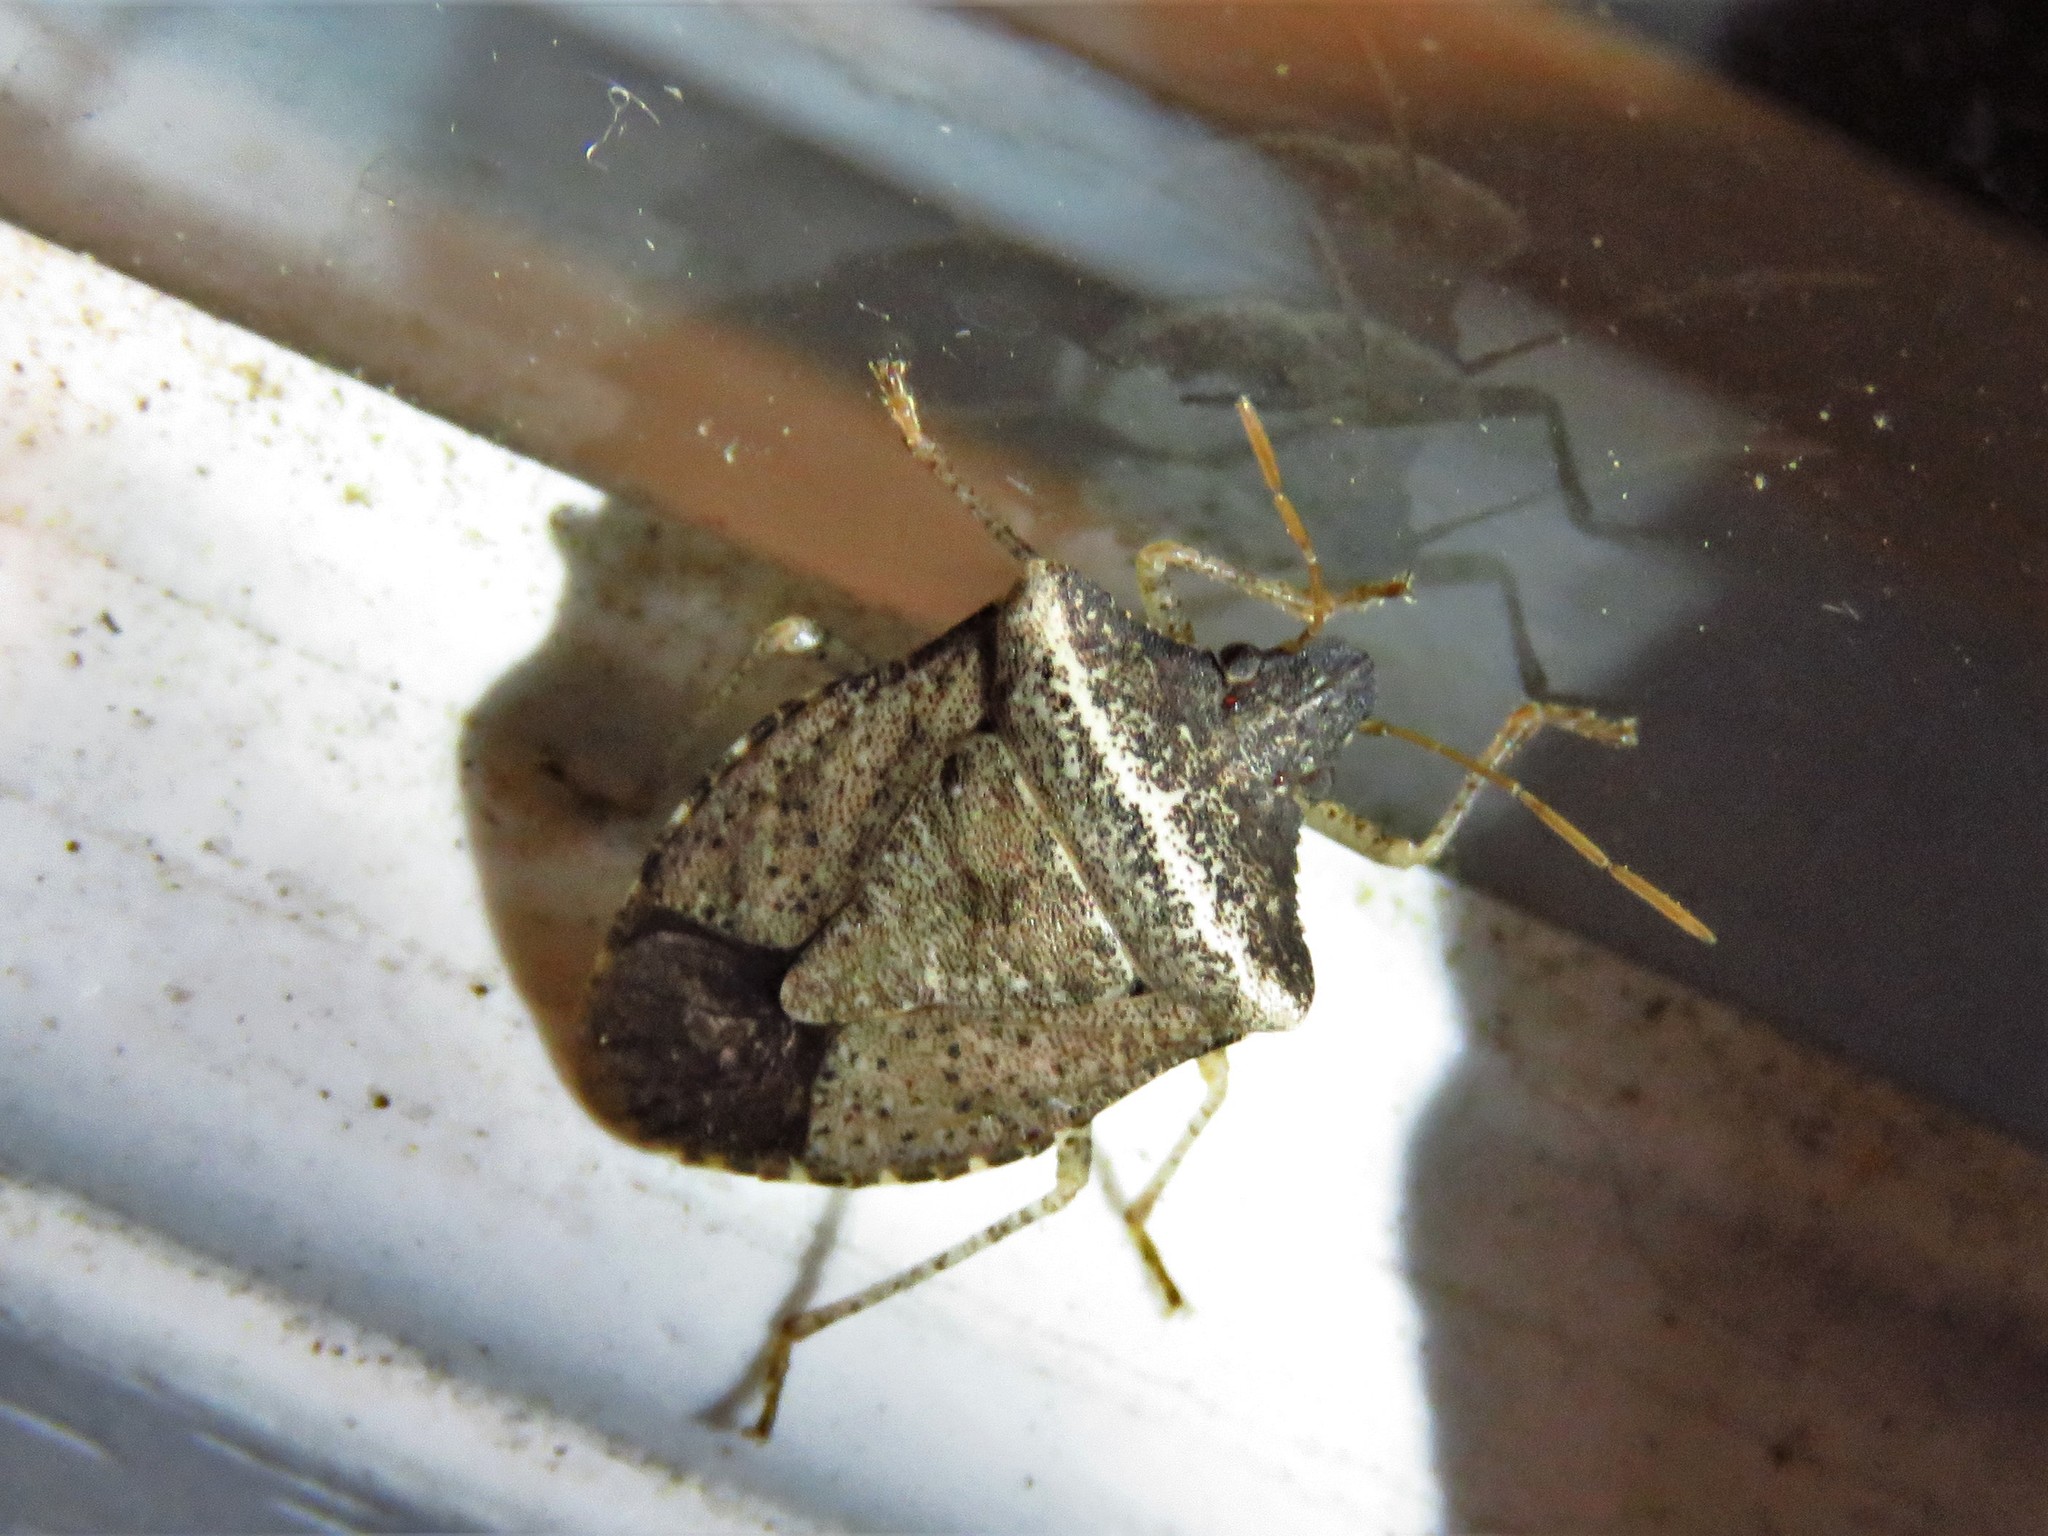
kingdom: Animalia
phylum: Arthropoda
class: Insecta
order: Hemiptera
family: Pentatomidae
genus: Euschistus
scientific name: Euschistus obscurus
